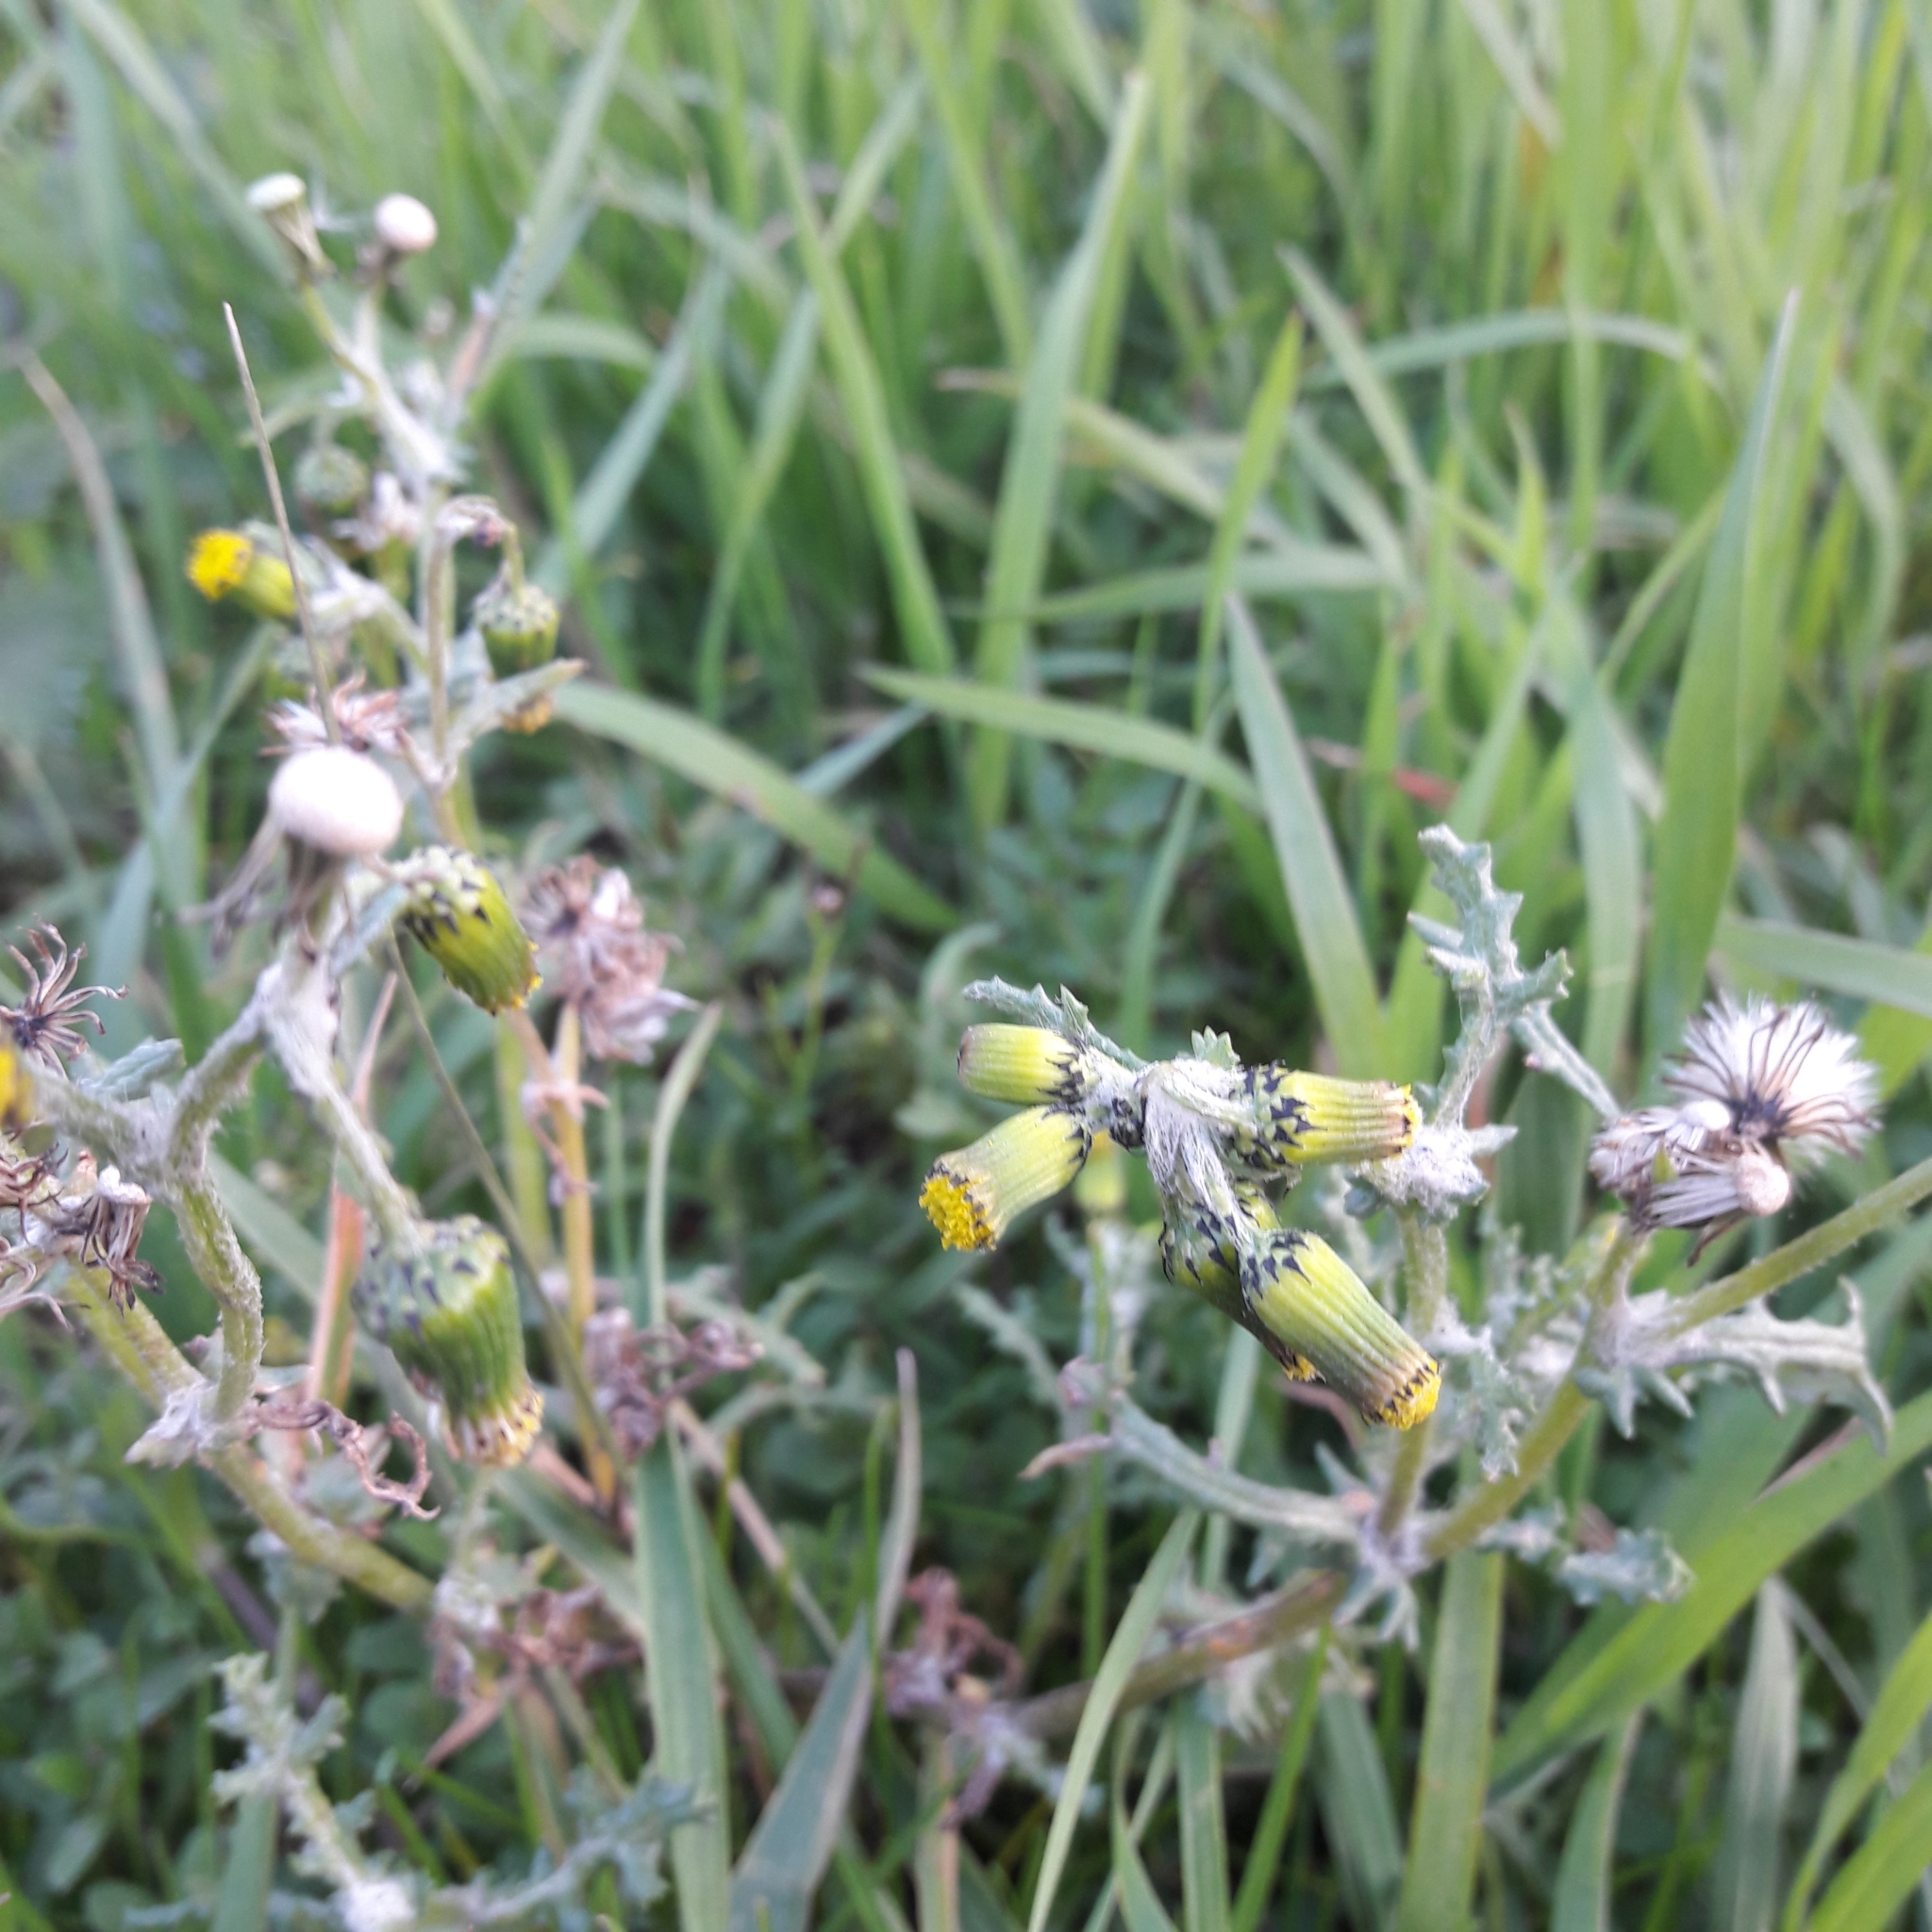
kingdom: Plantae
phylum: Tracheophyta
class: Magnoliopsida
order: Asterales
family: Asteraceae
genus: Senecio
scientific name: Senecio vulgaris
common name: Old-man-in-the-spring
